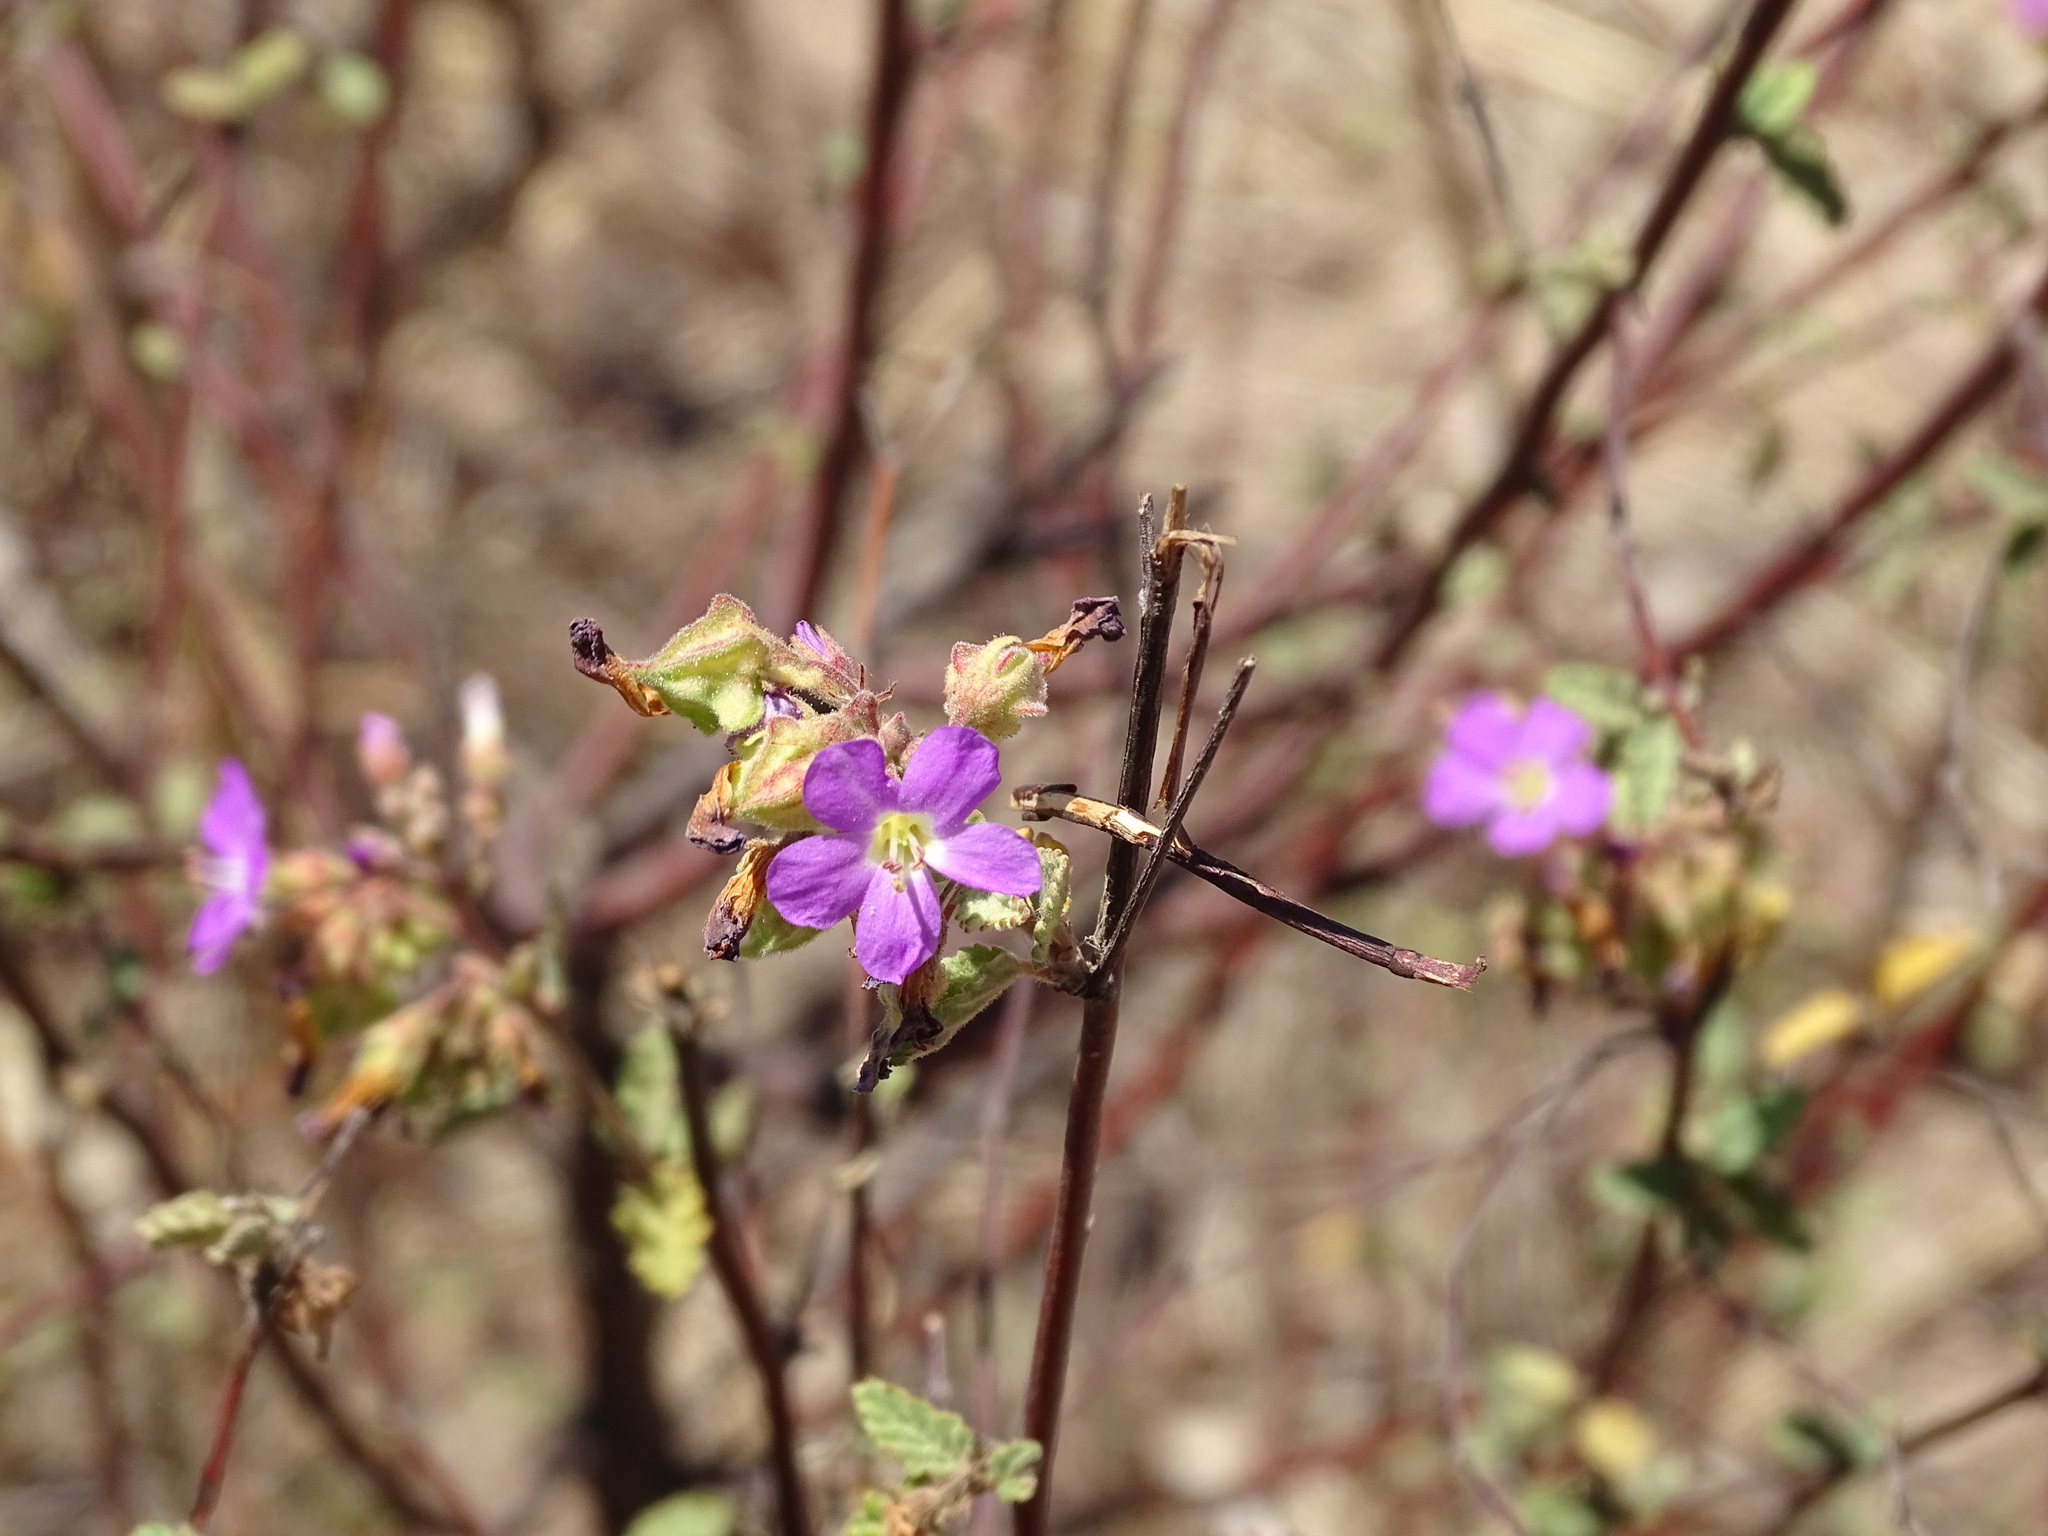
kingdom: Plantae
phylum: Tracheophyta
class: Magnoliopsida
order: Malvales
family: Malvaceae
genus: Melochia
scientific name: Melochia tomentosa
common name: Black torch
